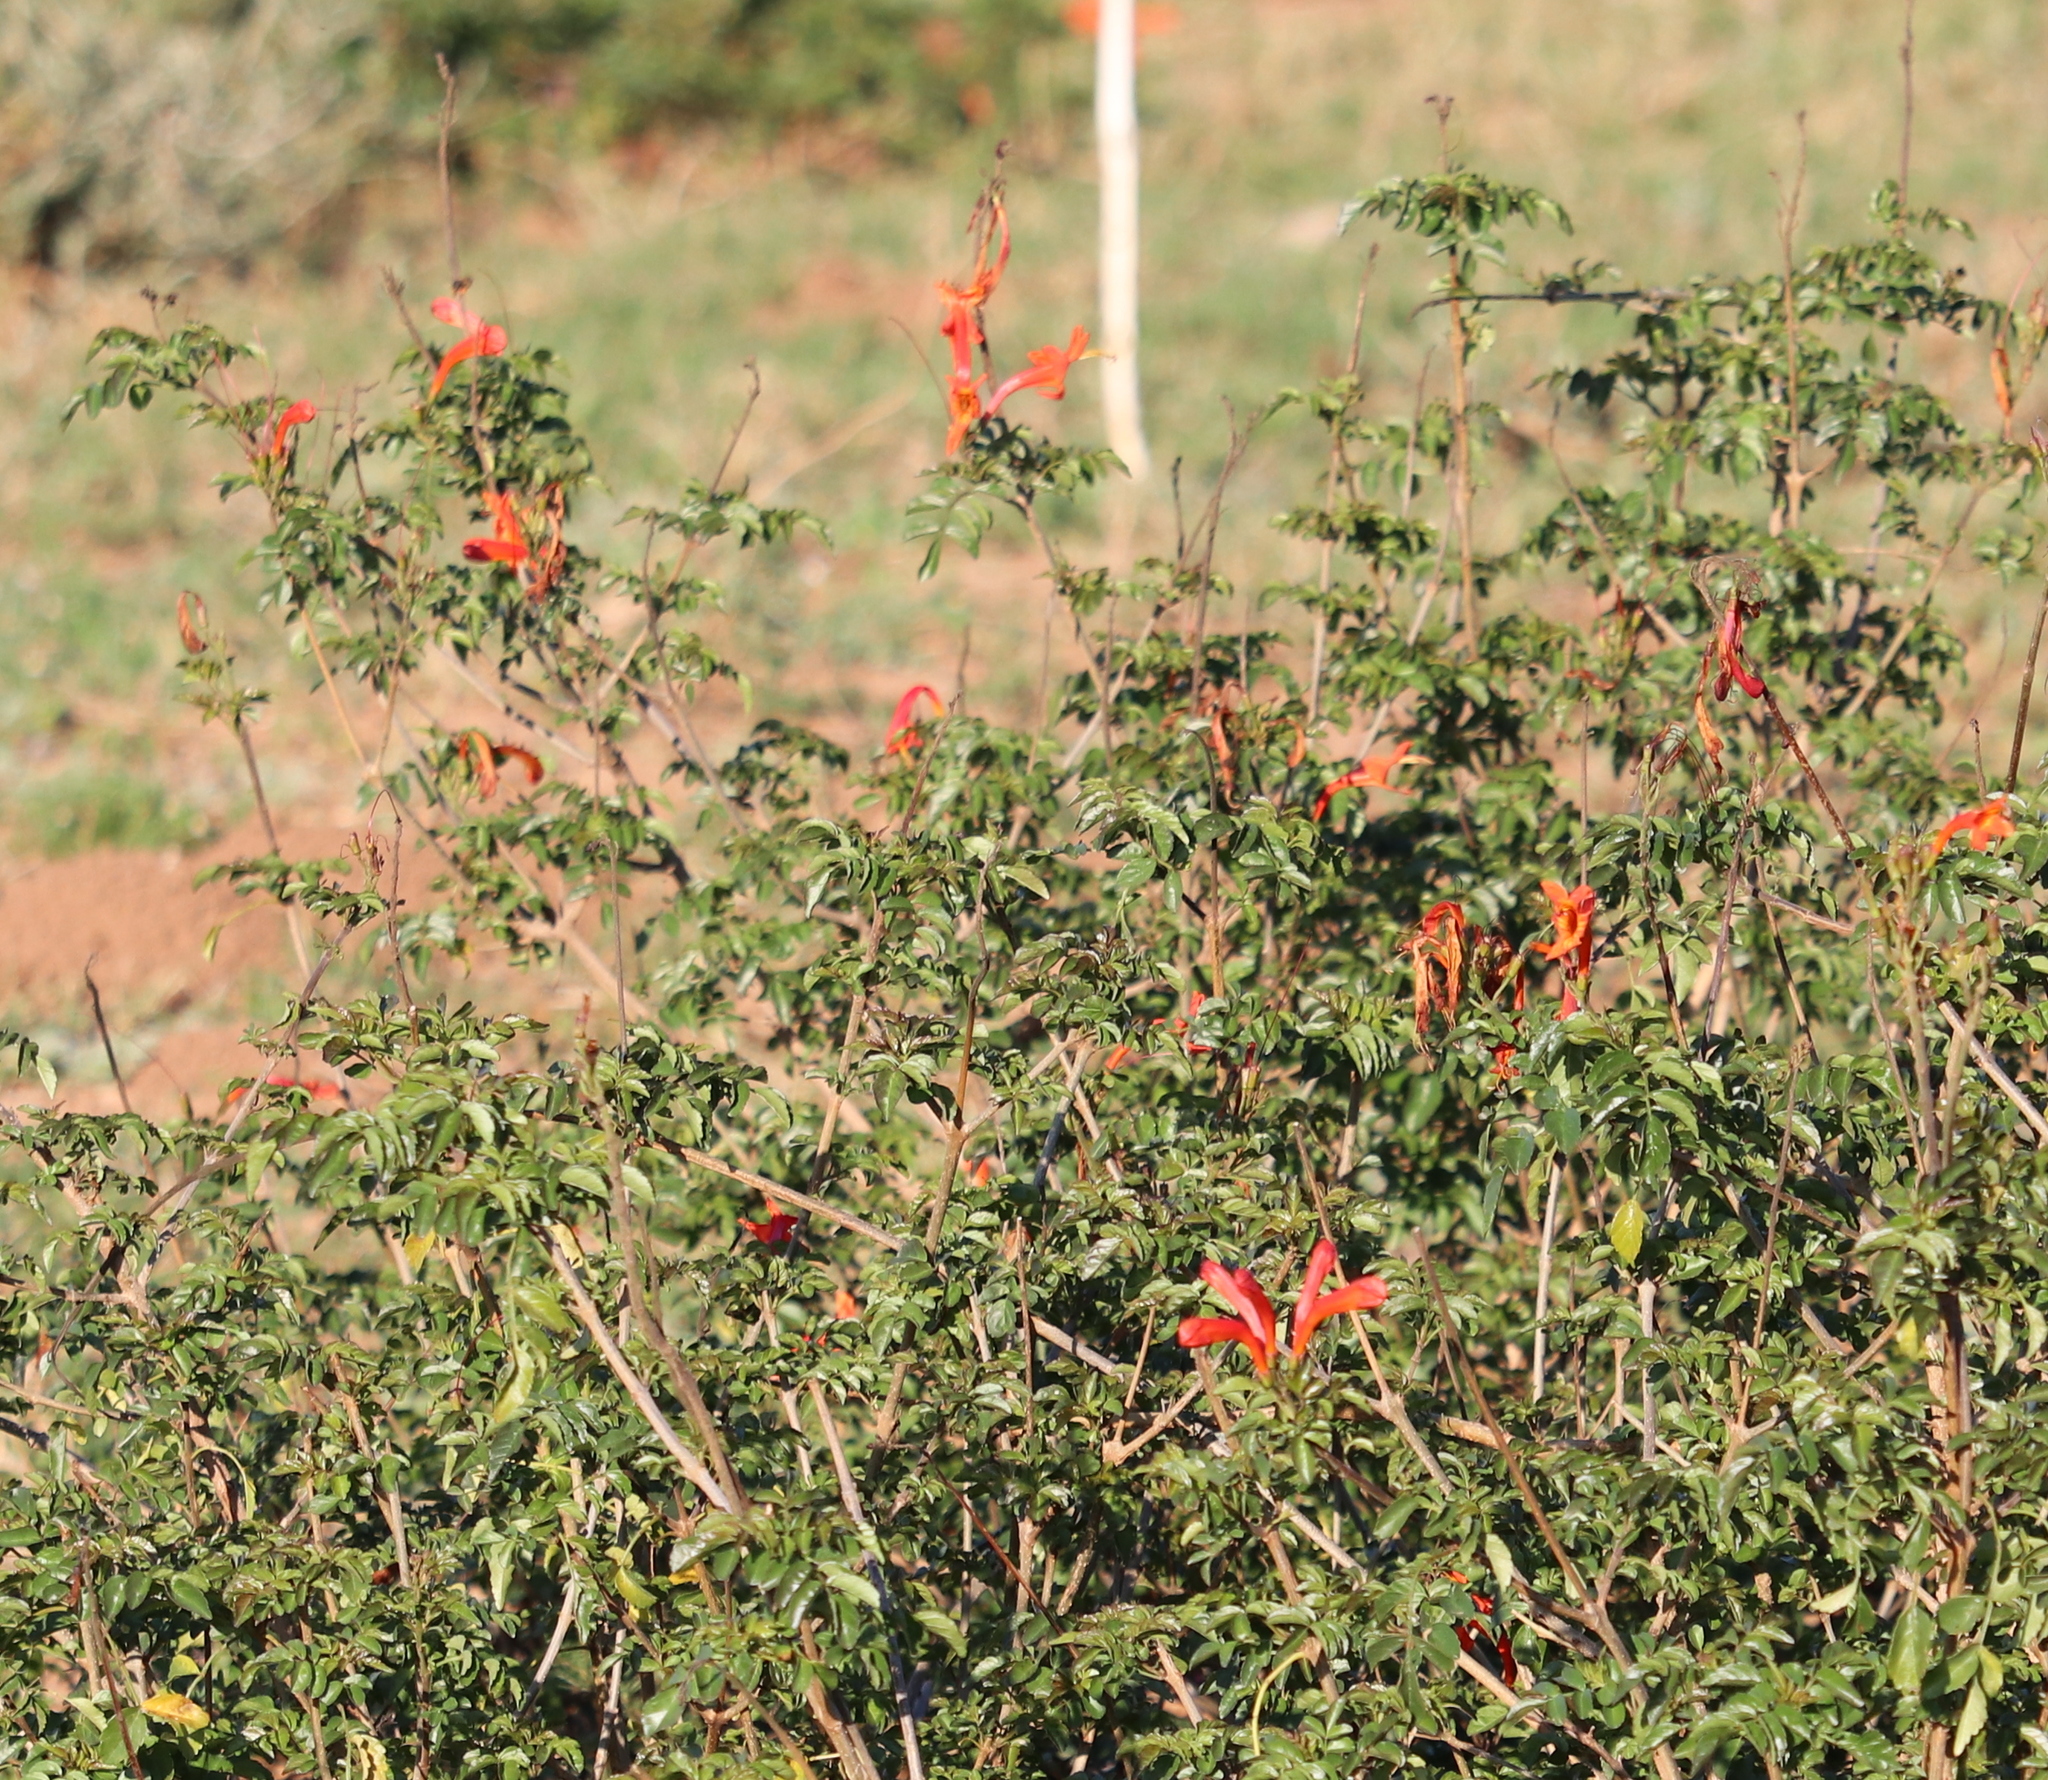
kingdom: Plantae
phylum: Tracheophyta
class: Magnoliopsida
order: Lamiales
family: Bignoniaceae
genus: Tecomaria
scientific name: Tecomaria capensis
